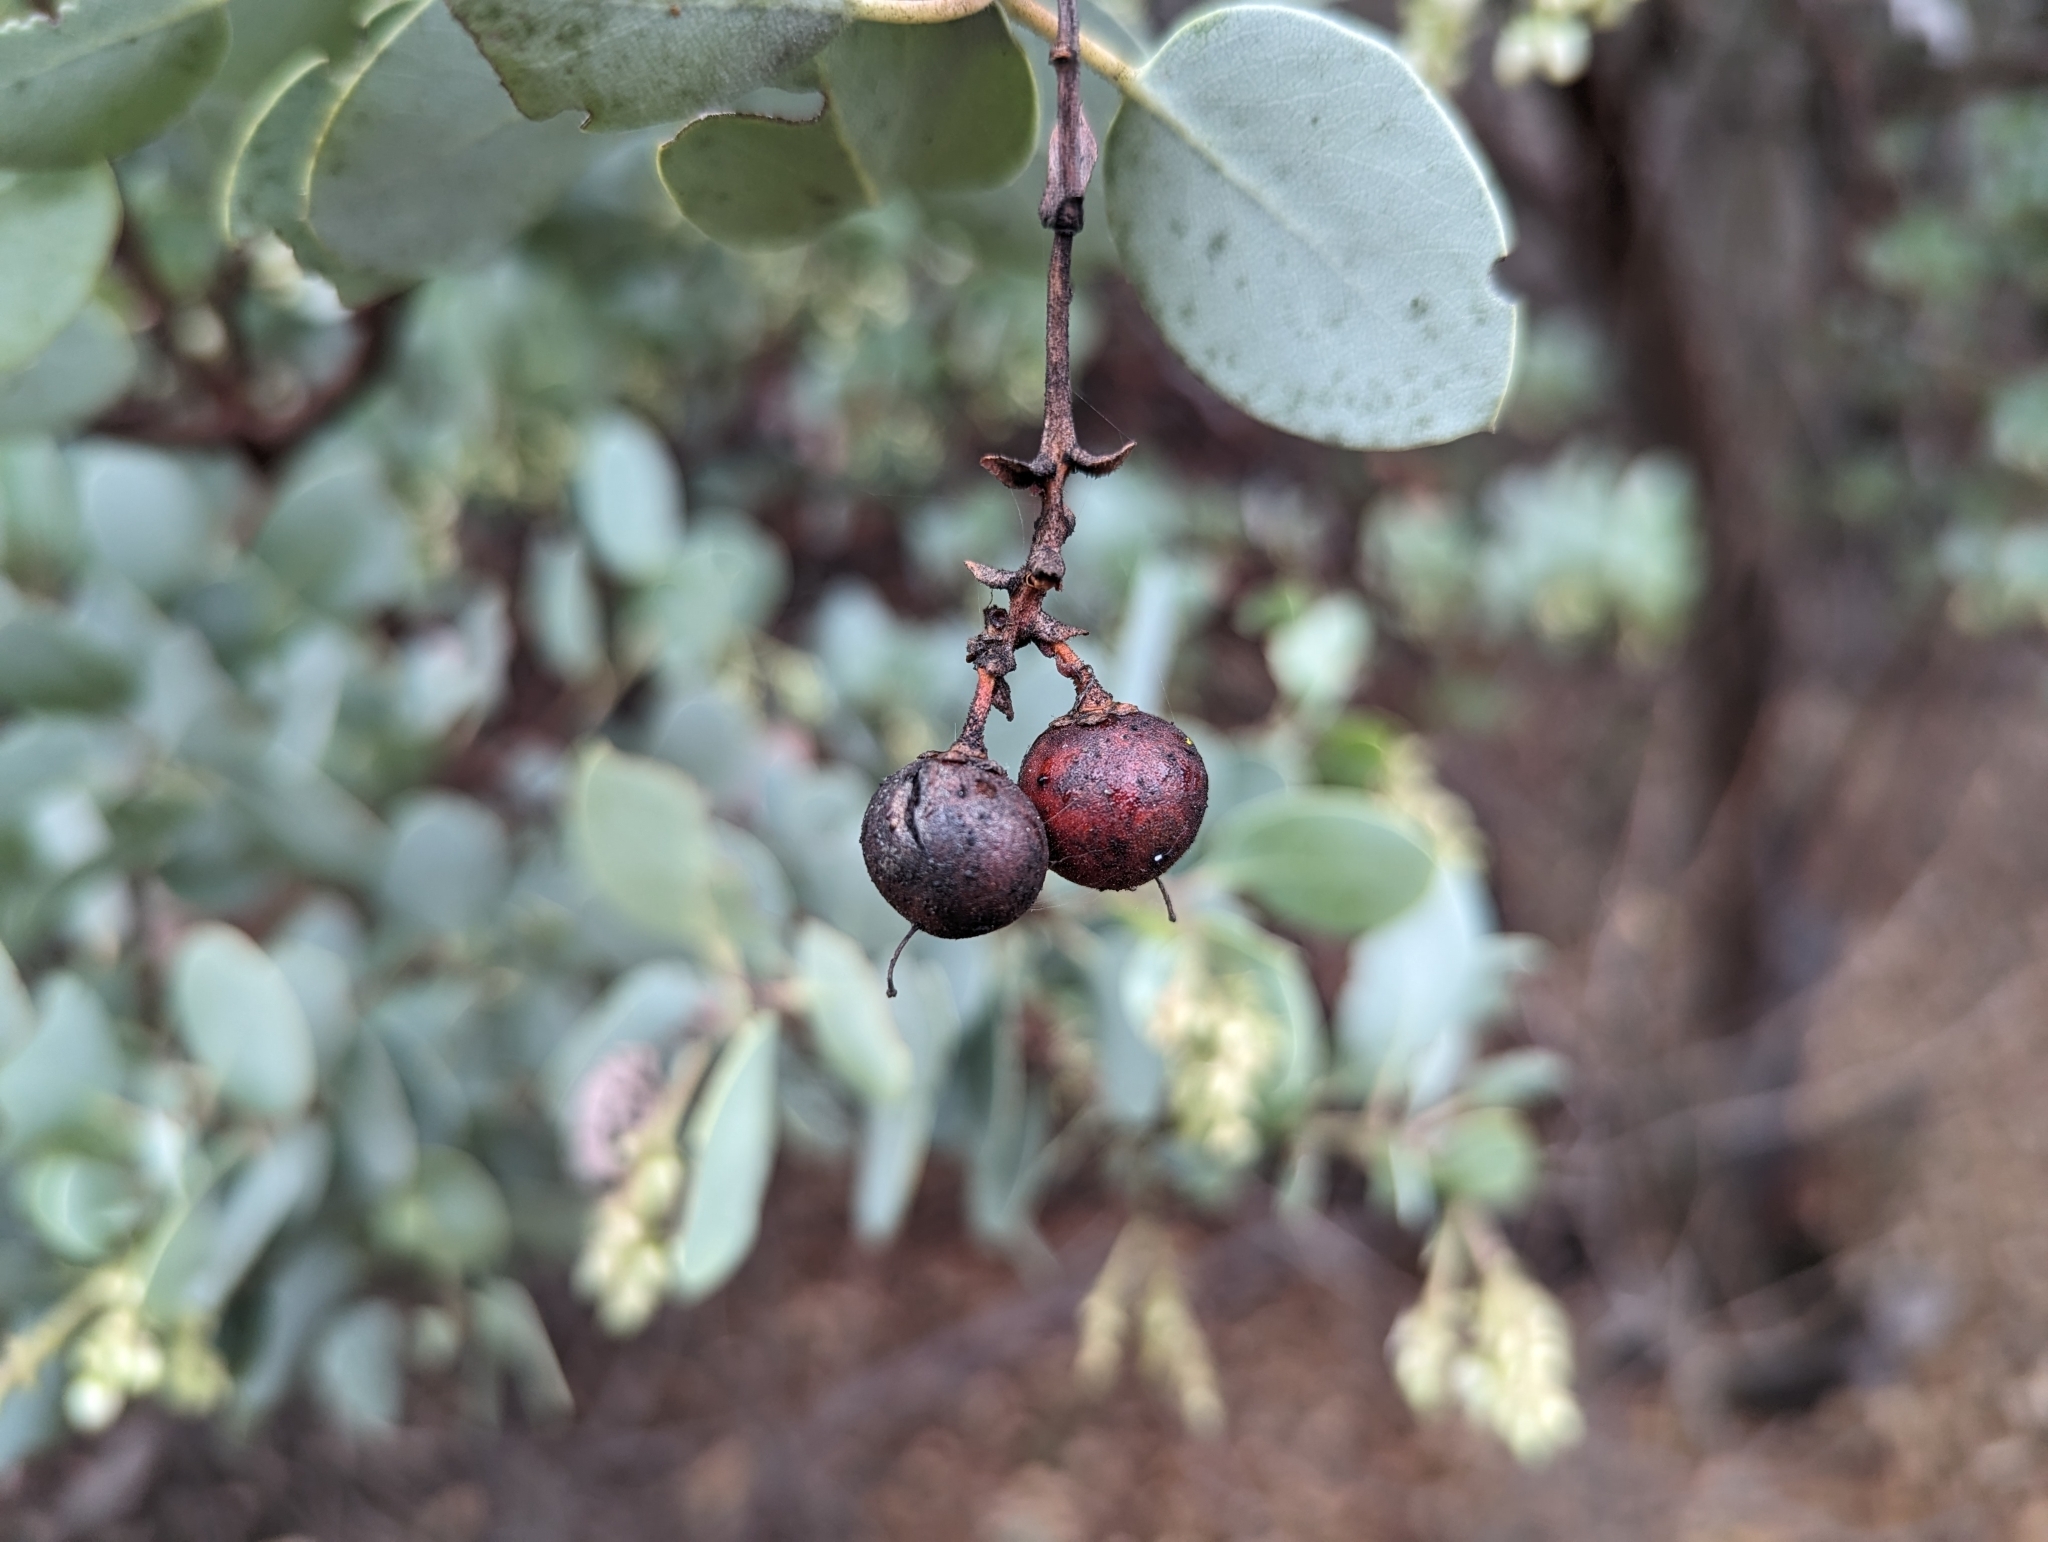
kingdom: Plantae
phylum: Tracheophyta
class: Magnoliopsida
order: Ericales
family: Ericaceae
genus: Arctostaphylos
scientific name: Arctostaphylos glauca
